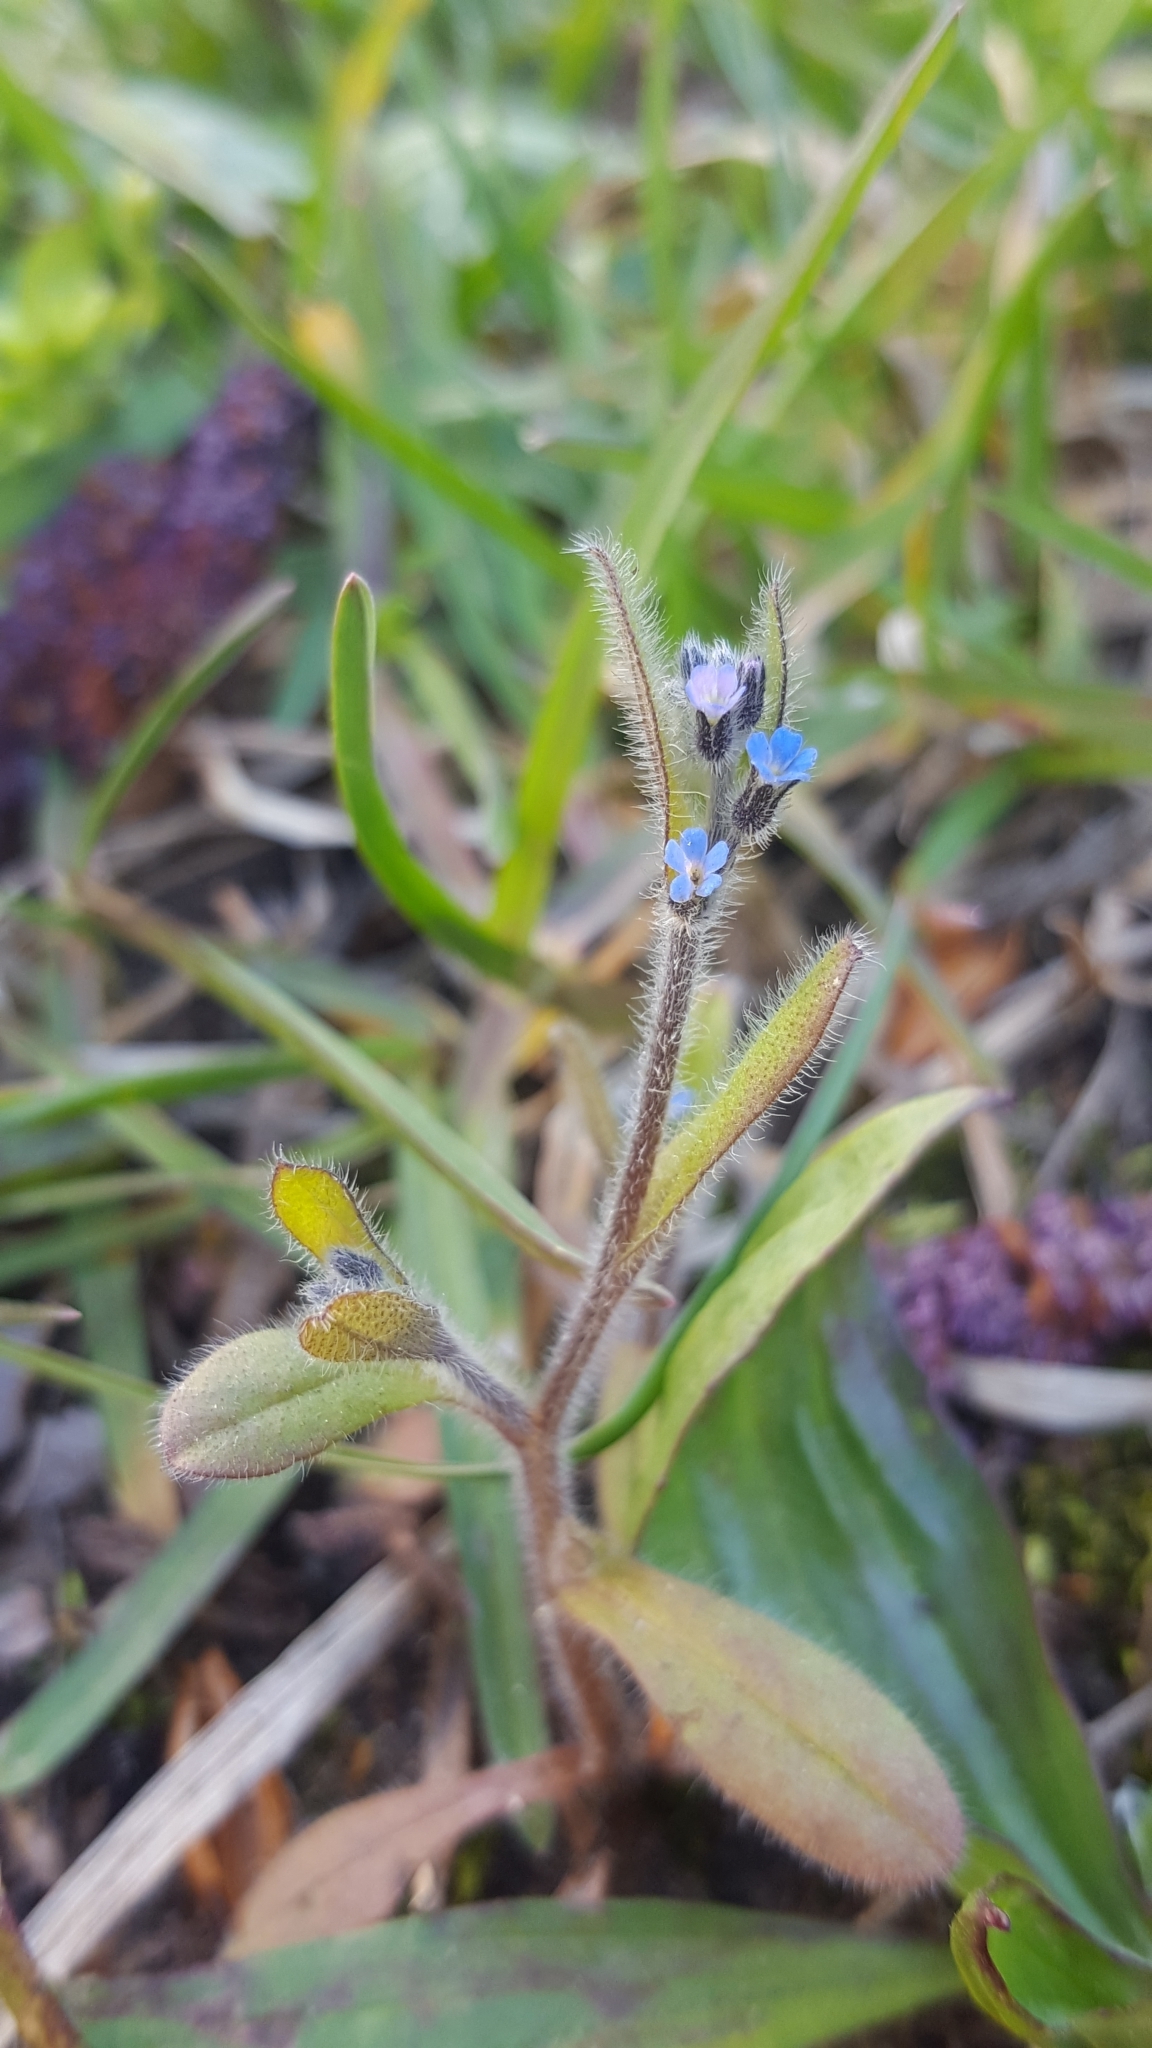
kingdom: Plantae
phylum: Tracheophyta
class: Magnoliopsida
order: Boraginales
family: Boraginaceae
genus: Myosotis
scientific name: Myosotis arvensis
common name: Field forget-me-not
